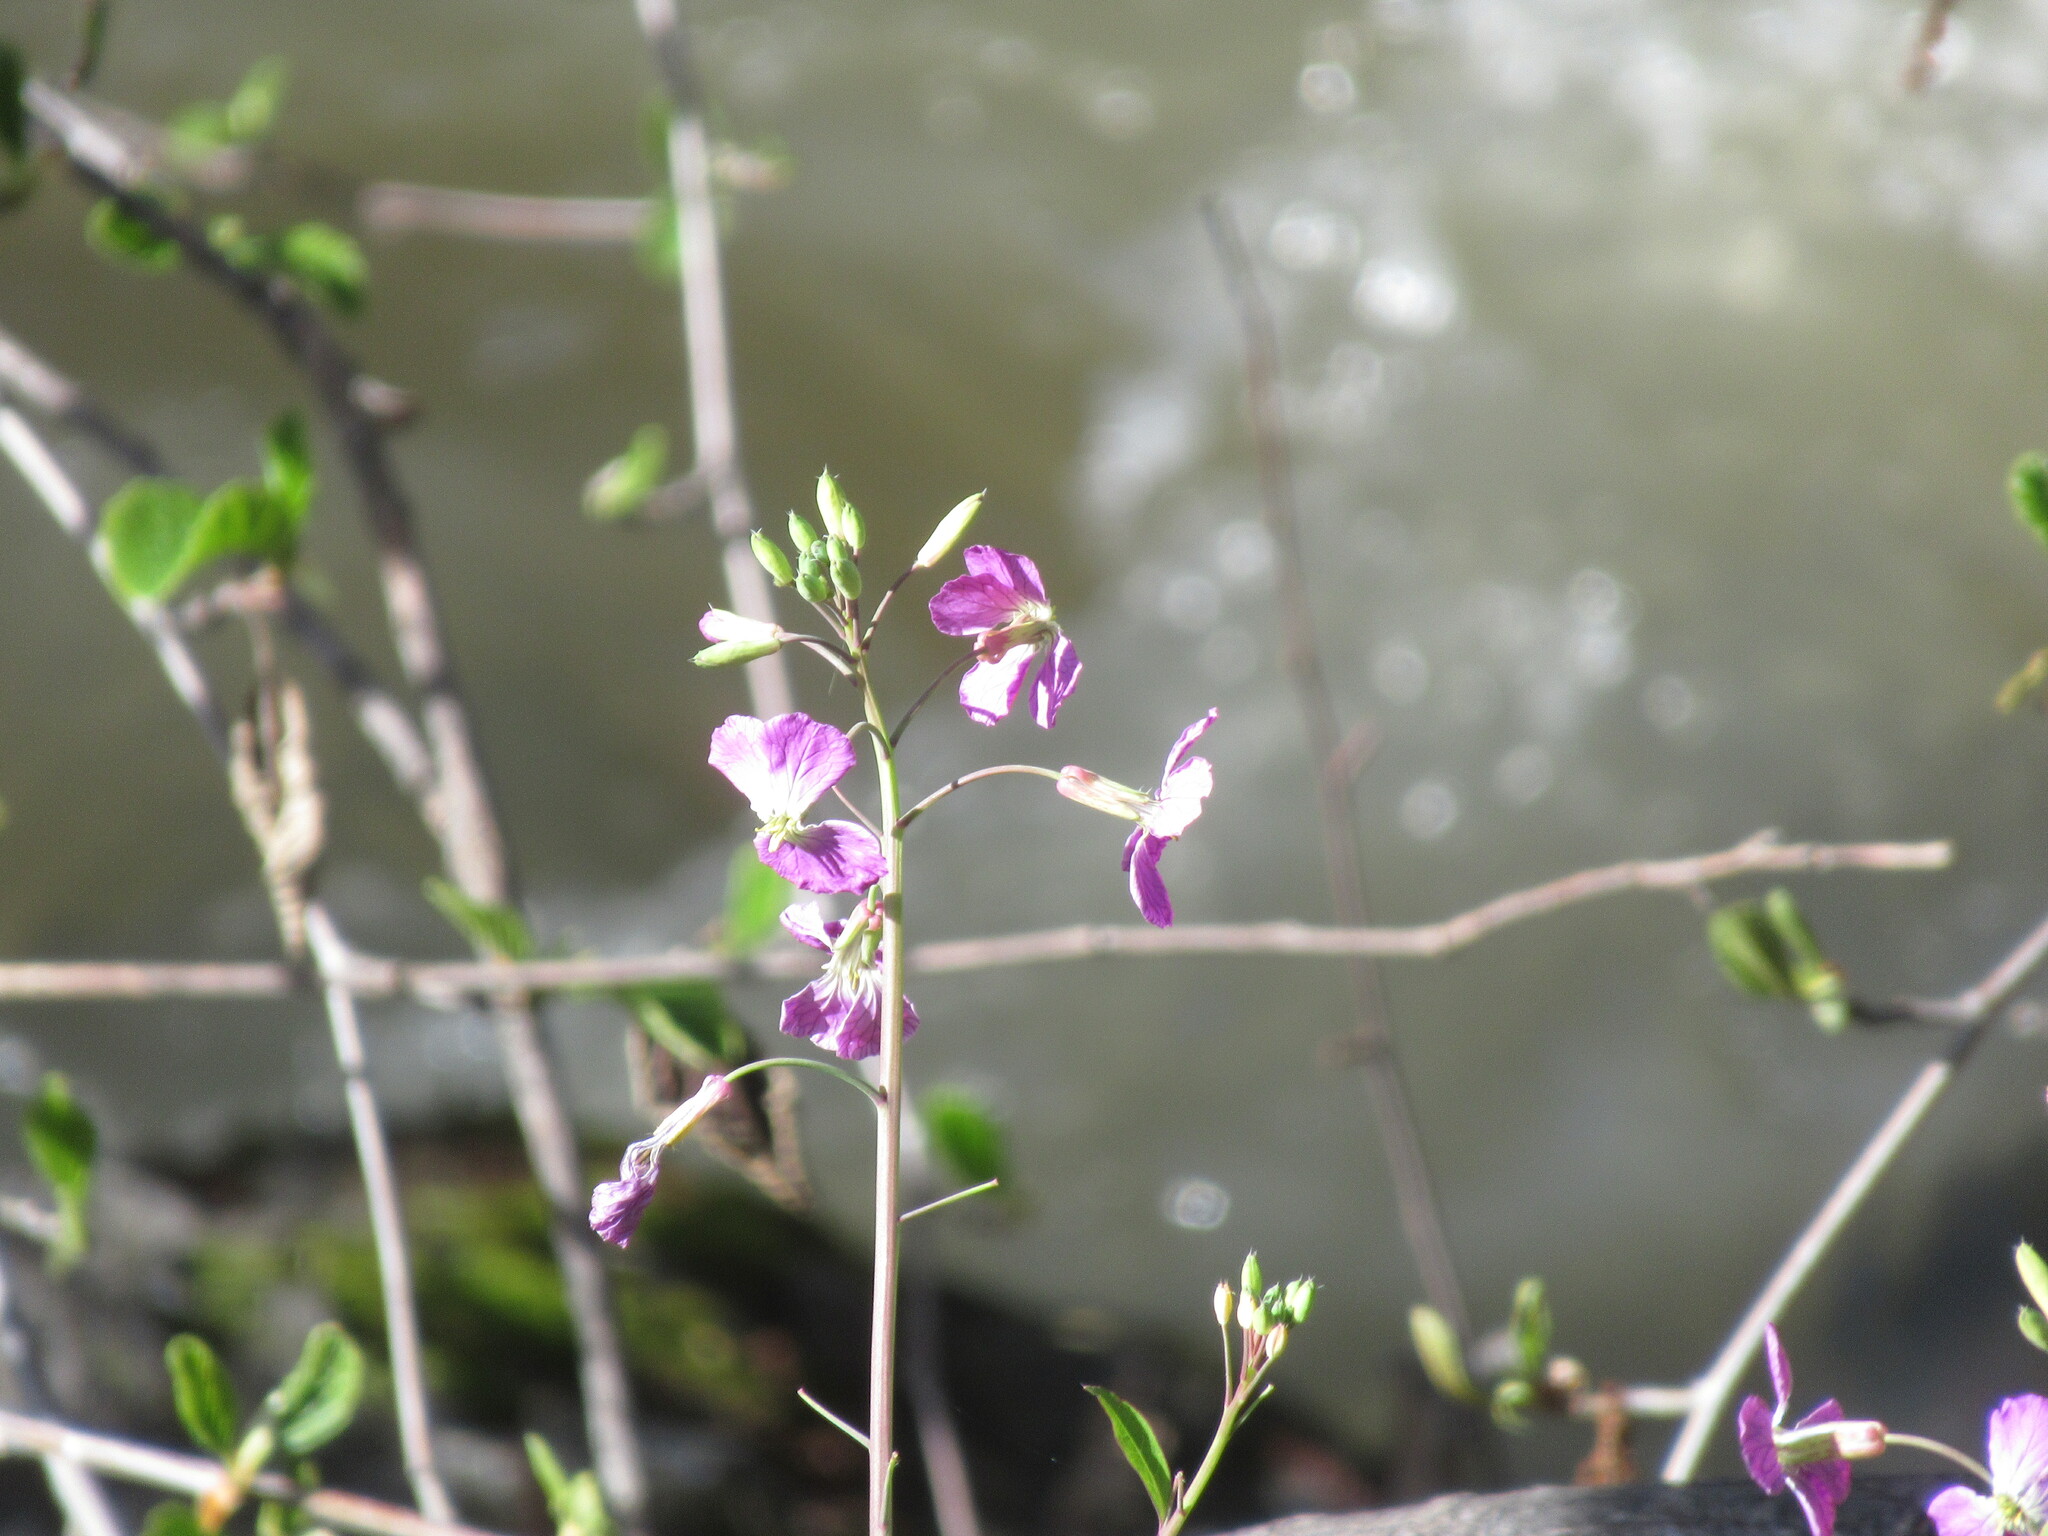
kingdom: Plantae
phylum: Tracheophyta
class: Magnoliopsida
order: Brassicales
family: Brassicaceae
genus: Raphanus
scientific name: Raphanus sativus
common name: Cultivated radish
